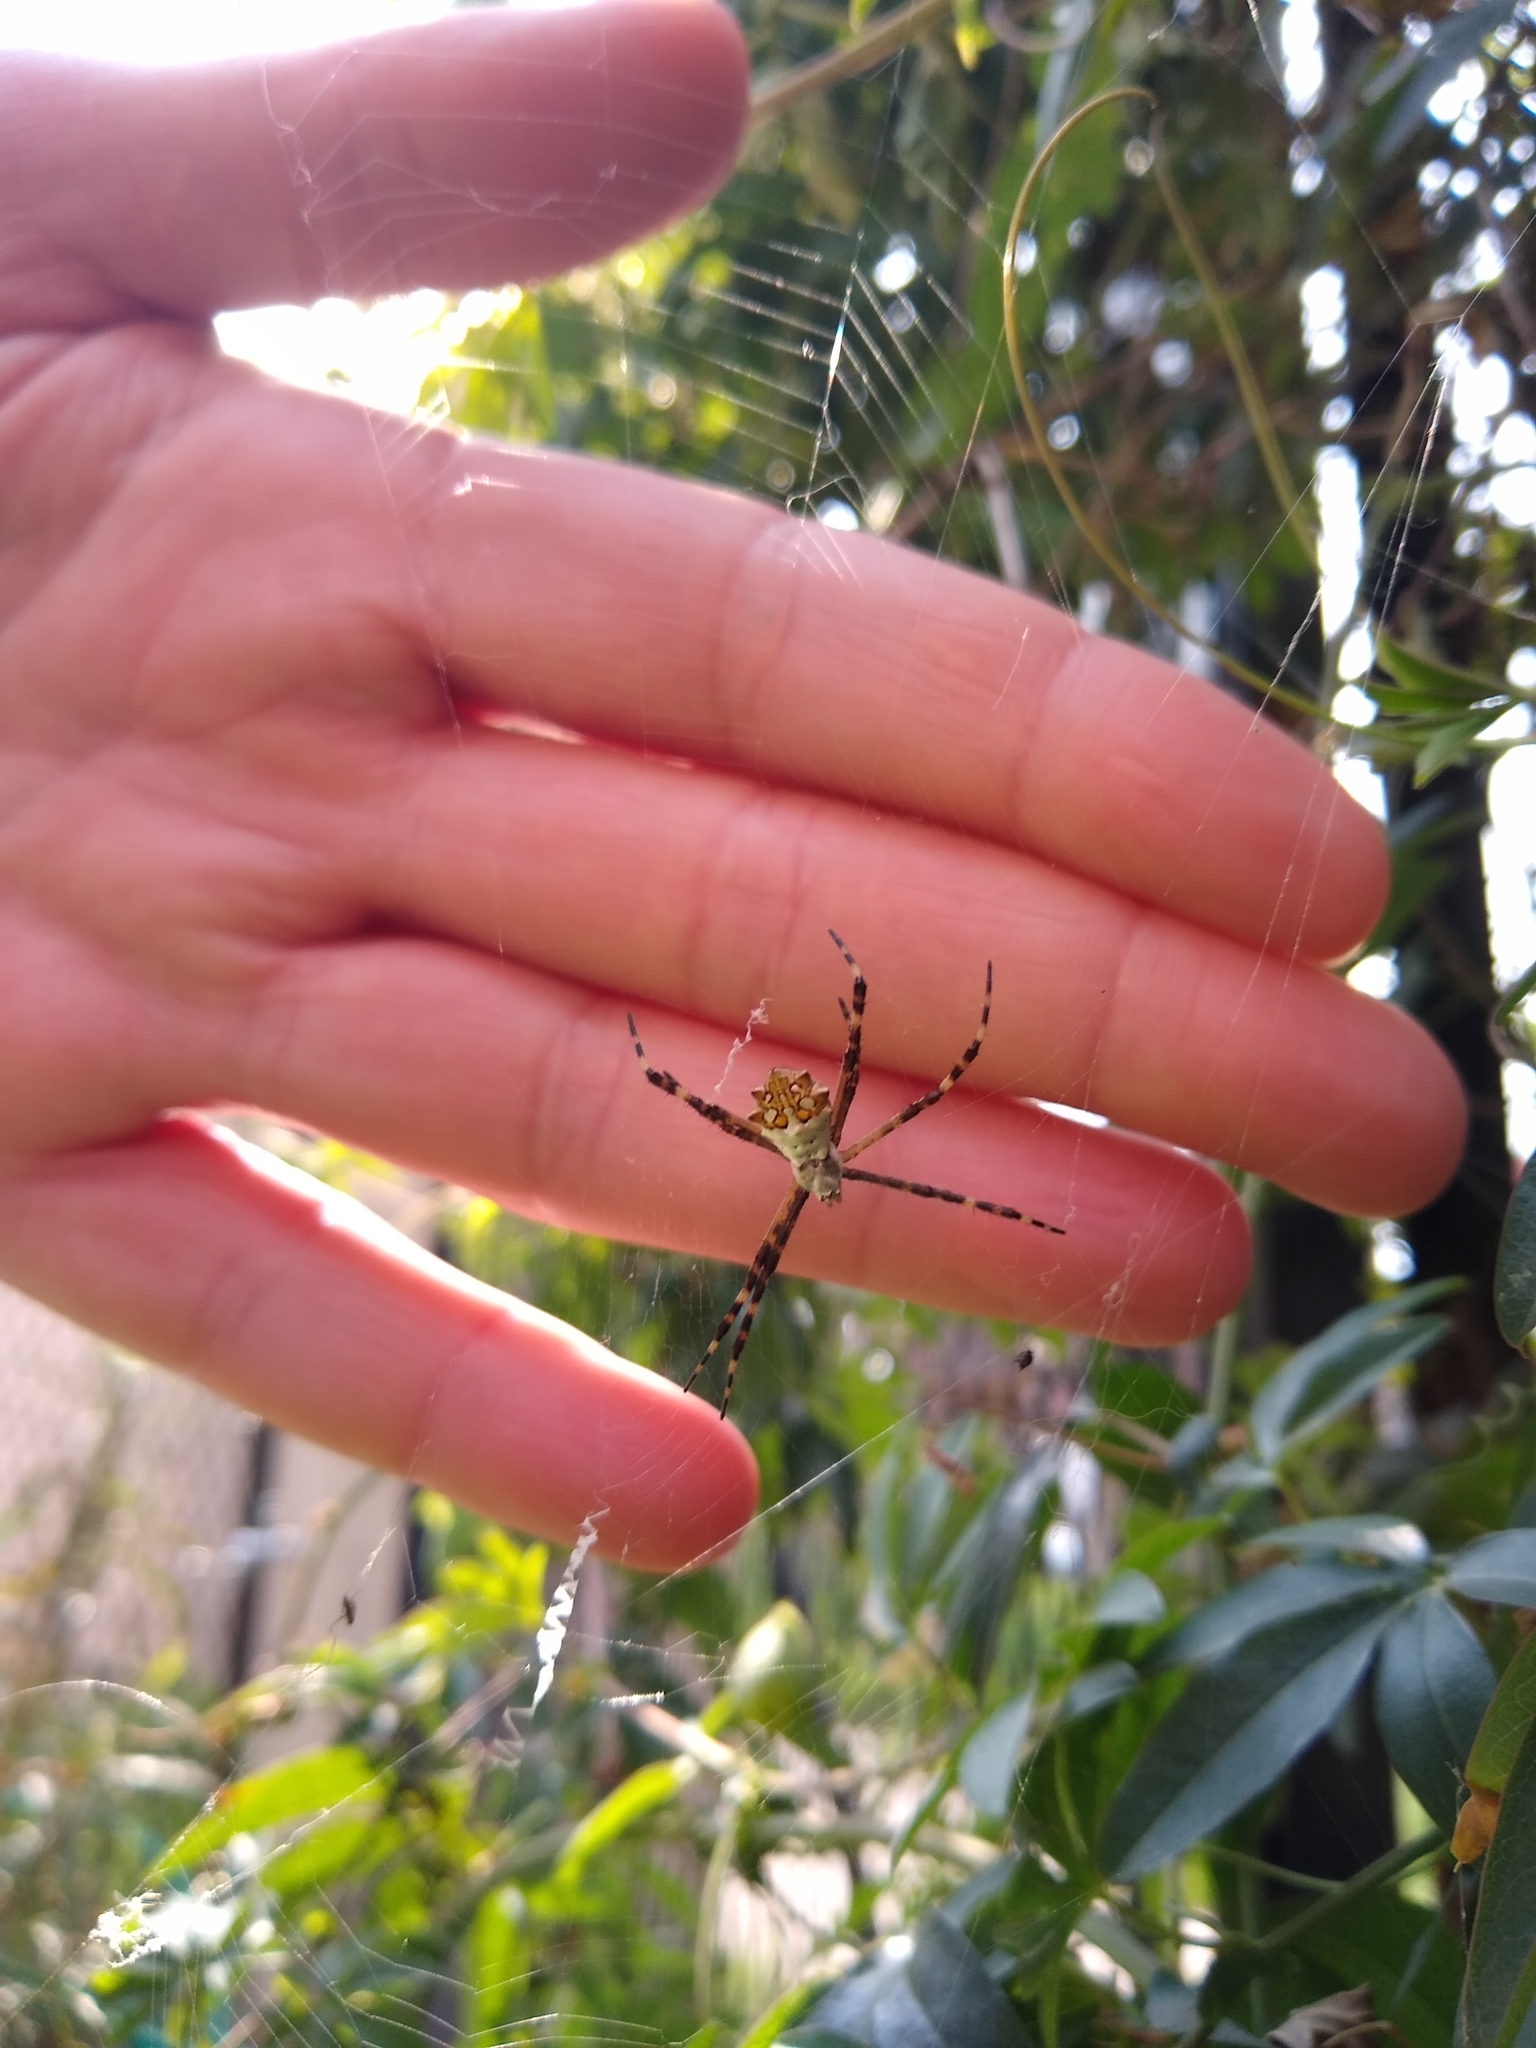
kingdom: Animalia
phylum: Arthropoda
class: Arachnida
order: Araneae
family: Araneidae
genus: Argiope
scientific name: Argiope argentata
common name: Orb weavers
